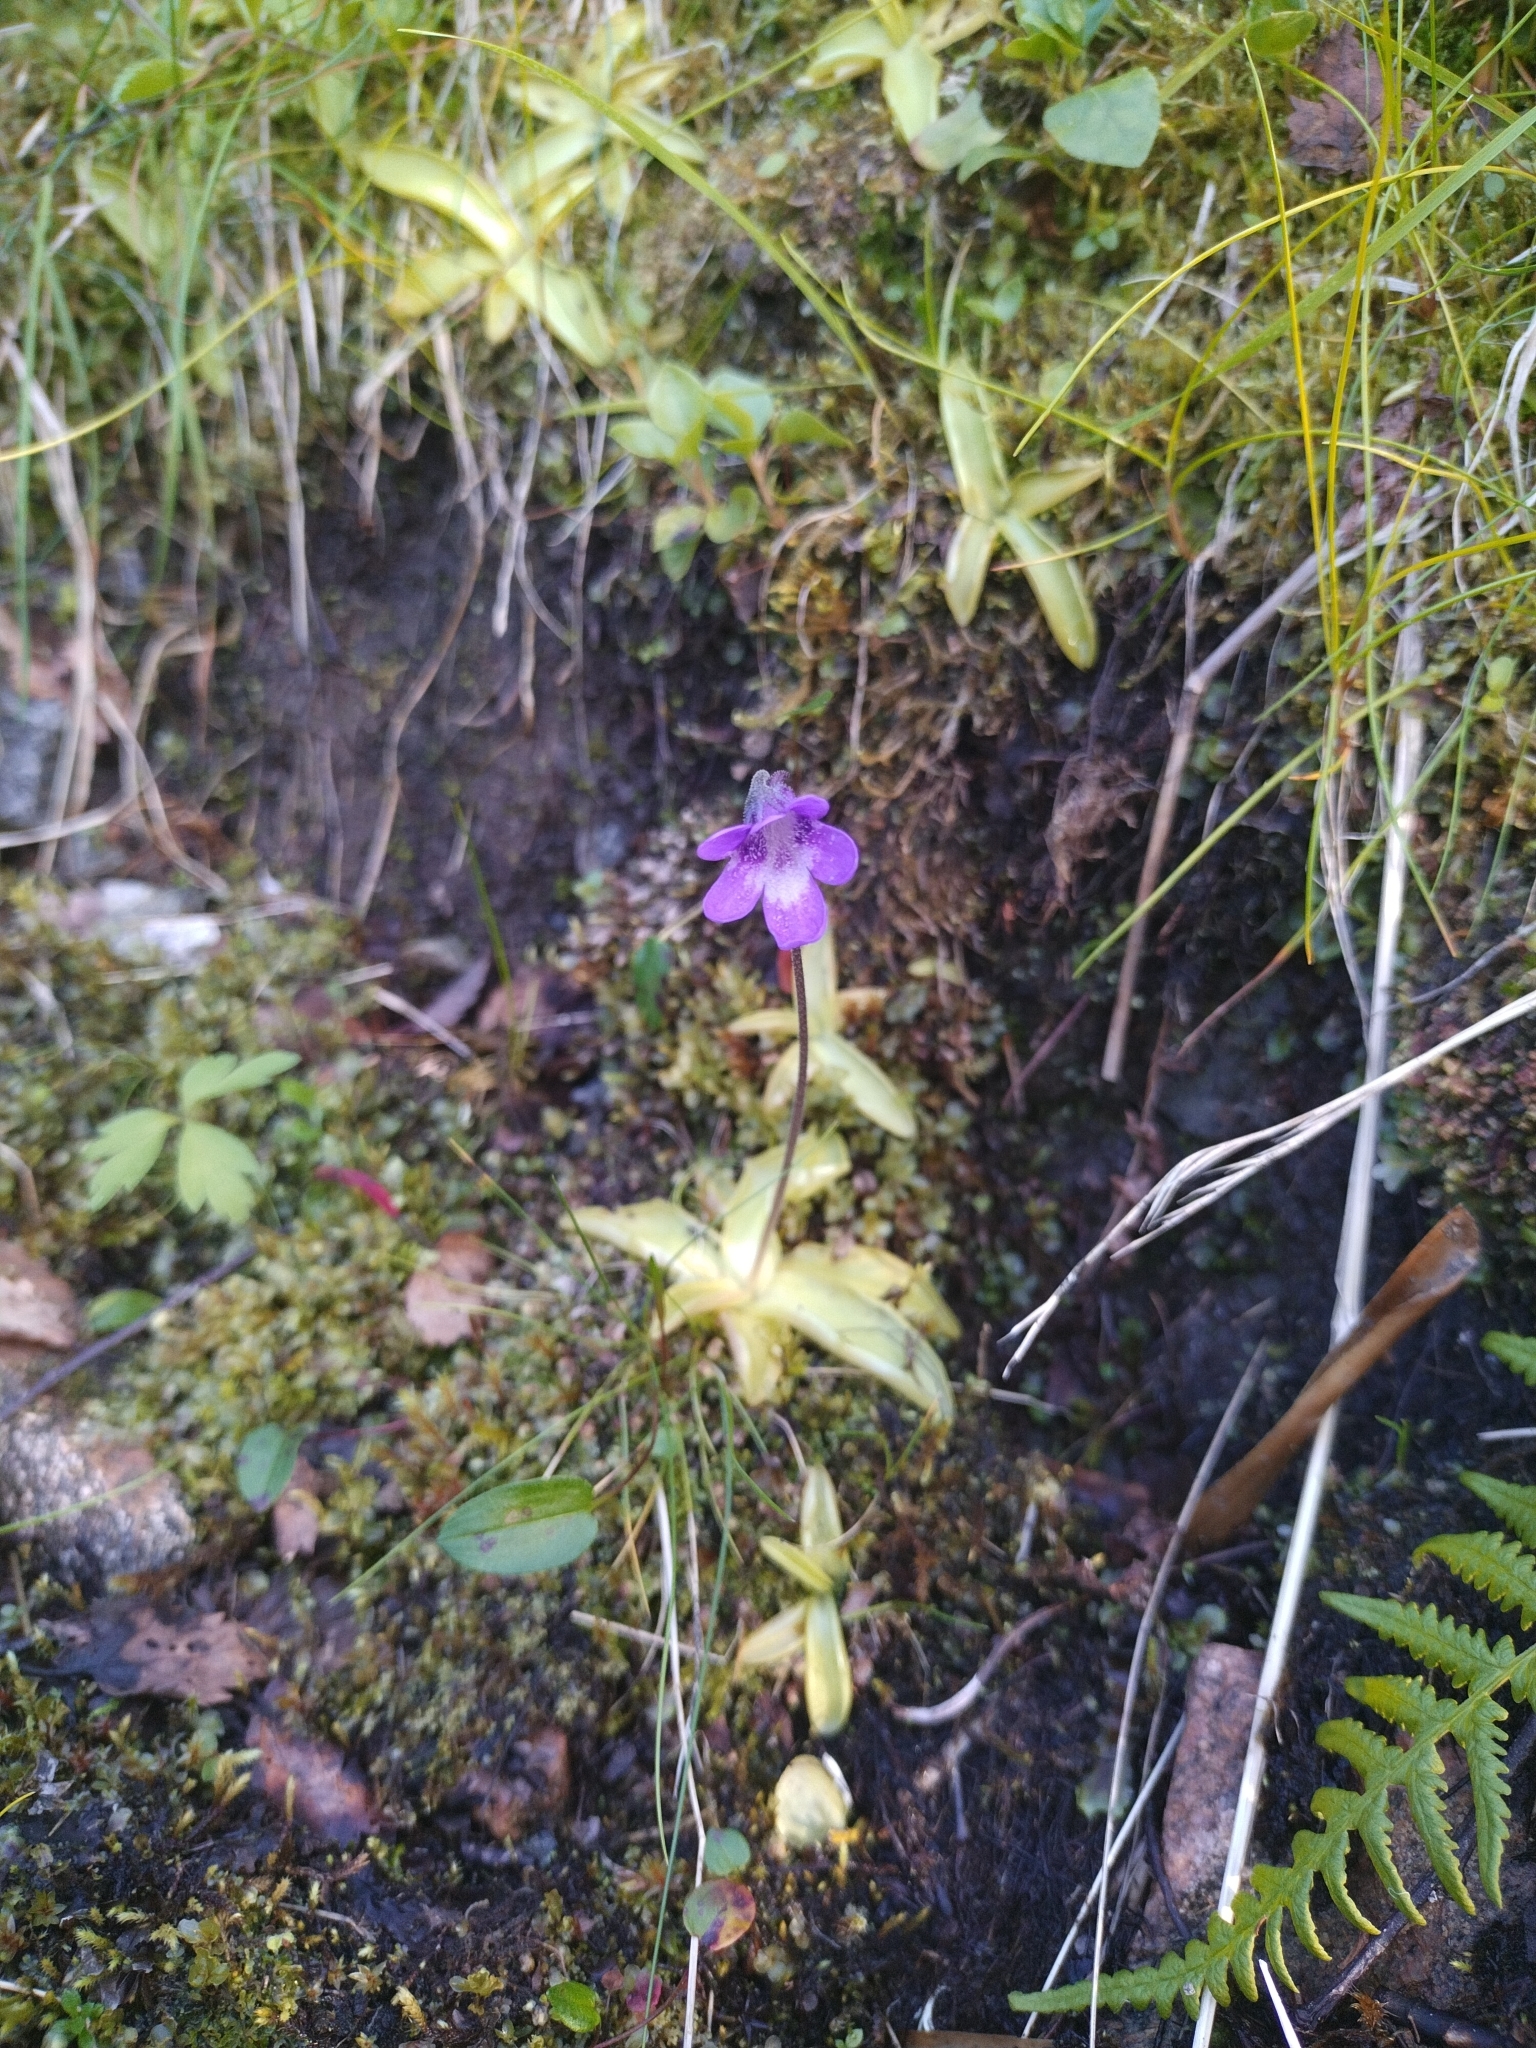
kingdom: Plantae
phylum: Tracheophyta
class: Magnoliopsida
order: Lamiales
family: Lentibulariaceae
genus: Pinguicula
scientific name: Pinguicula vulgaris
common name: Common butterwort
